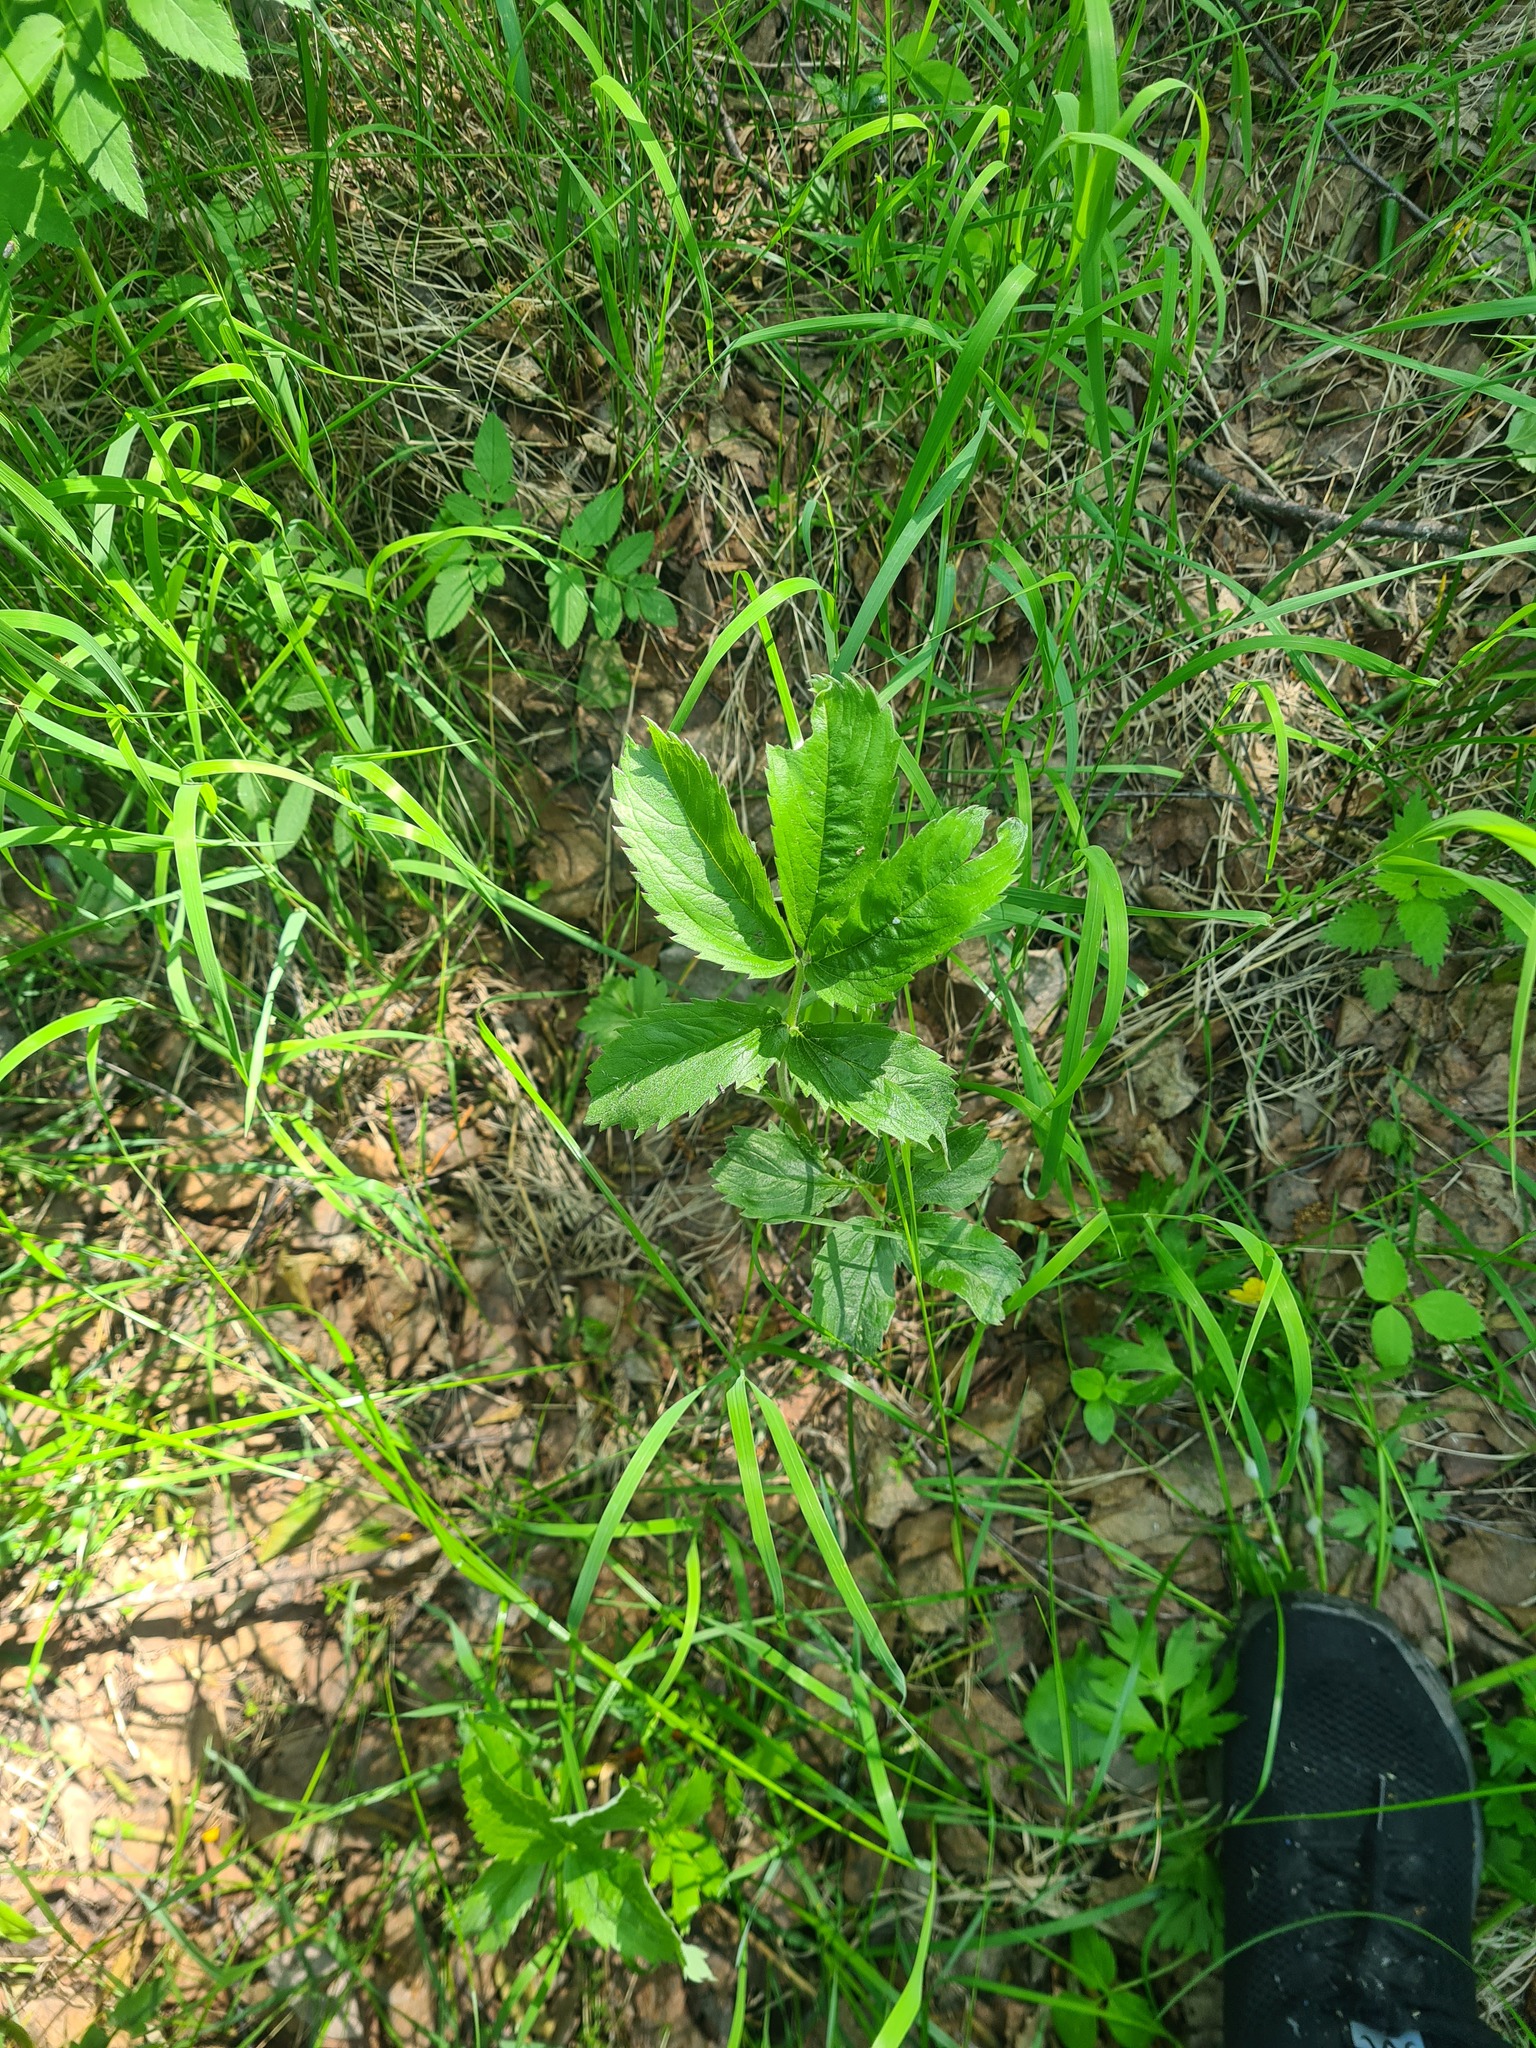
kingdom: Plantae
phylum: Tracheophyta
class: Magnoliopsida
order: Rosales
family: Rosaceae
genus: Comarum
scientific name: Comarum palustre
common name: Marsh cinquefoil
